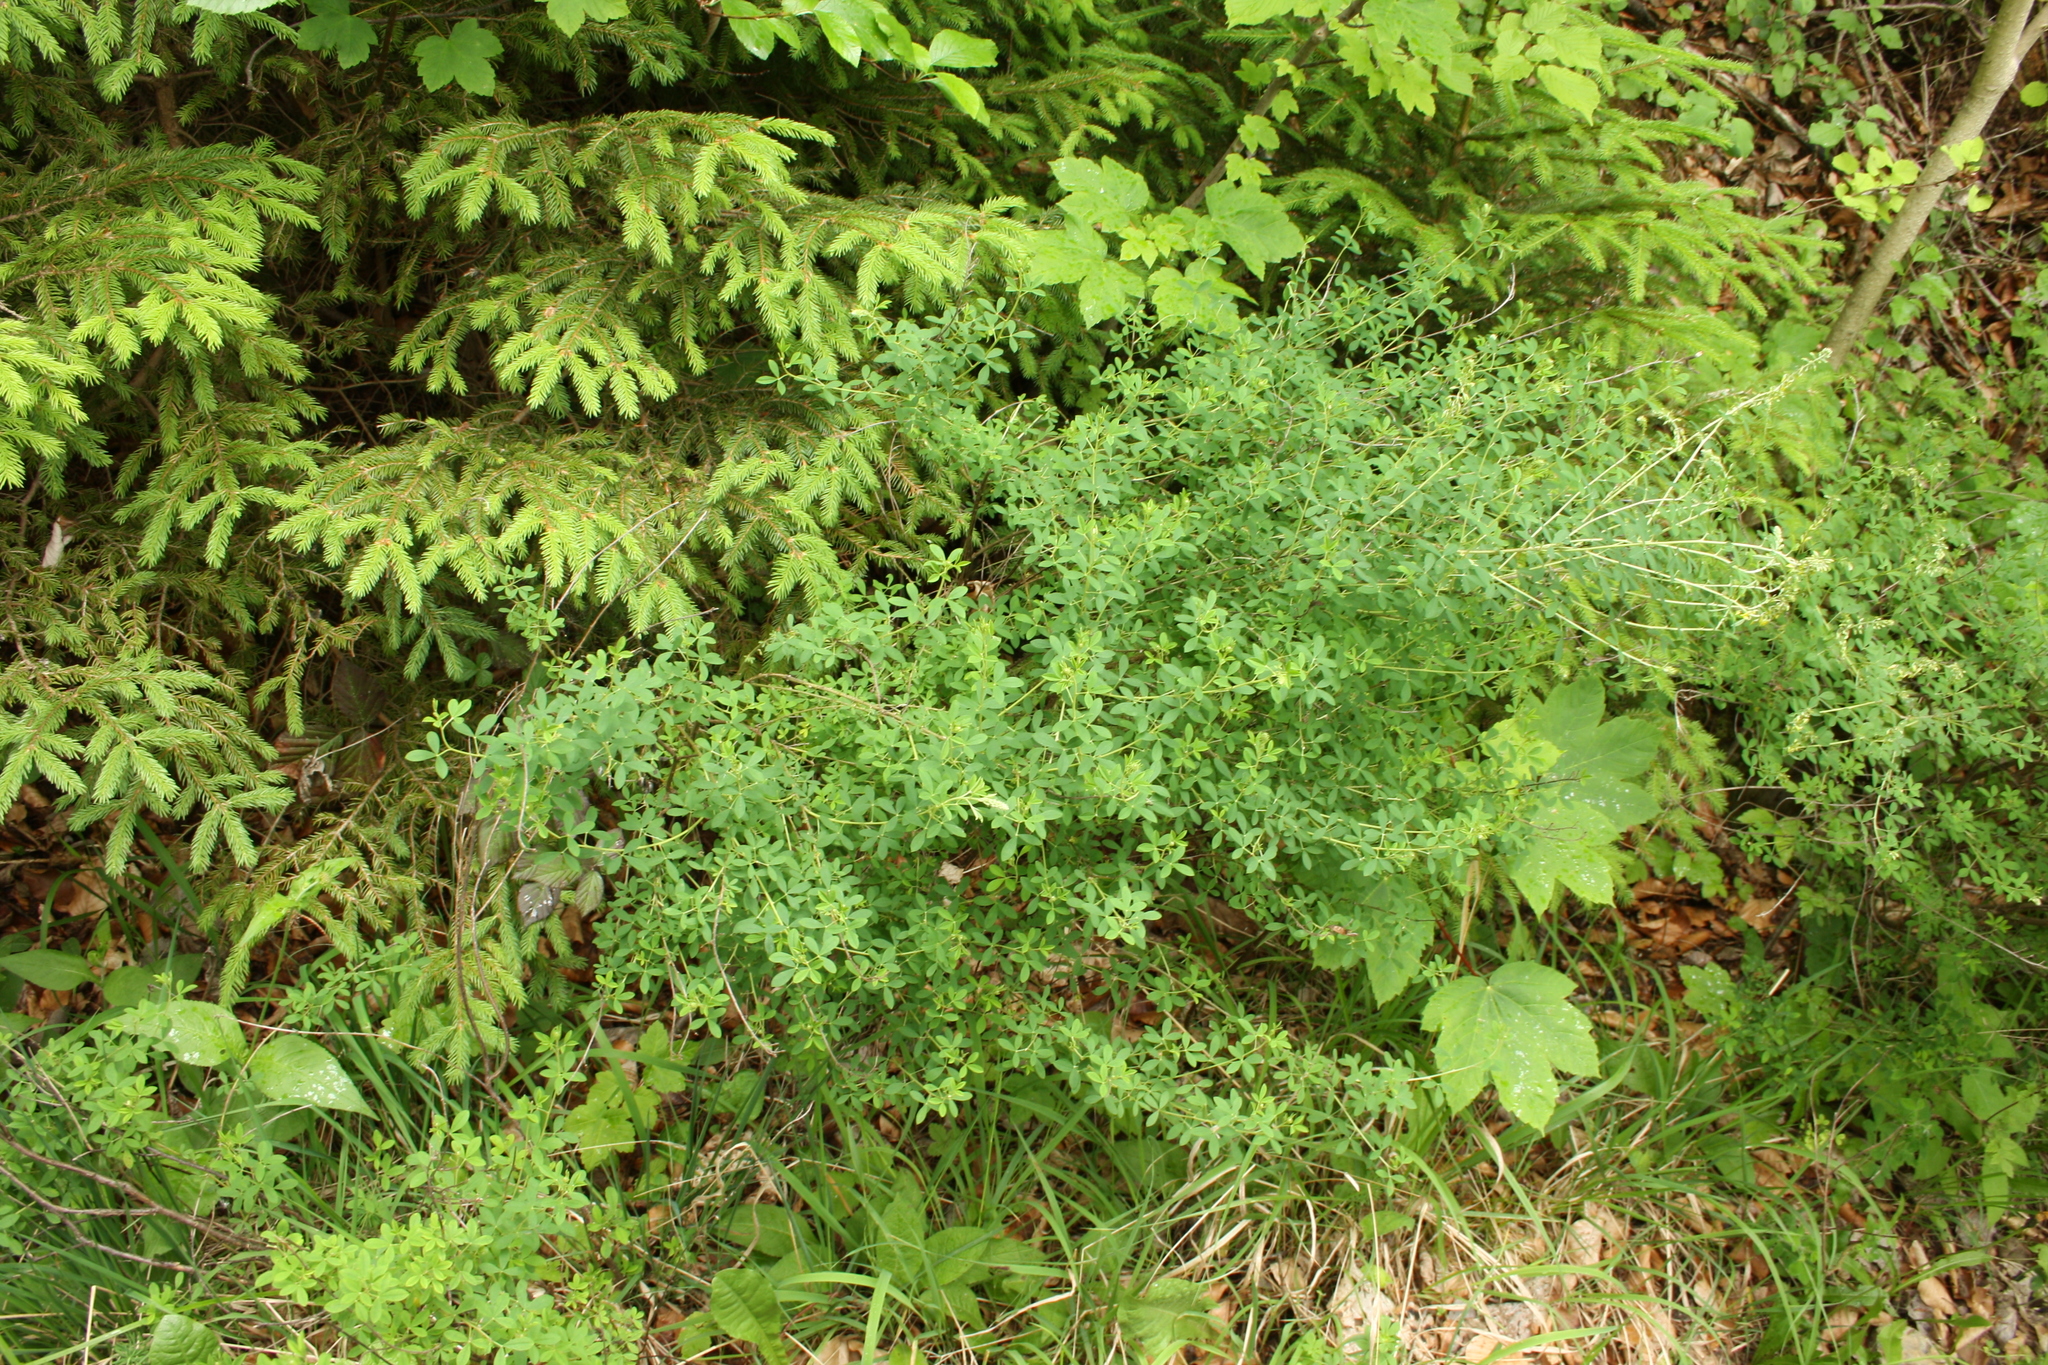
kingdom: Plantae
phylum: Tracheophyta
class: Magnoliopsida
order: Fabales
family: Fabaceae
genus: Cytisus
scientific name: Cytisus nigricans
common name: Black broom
